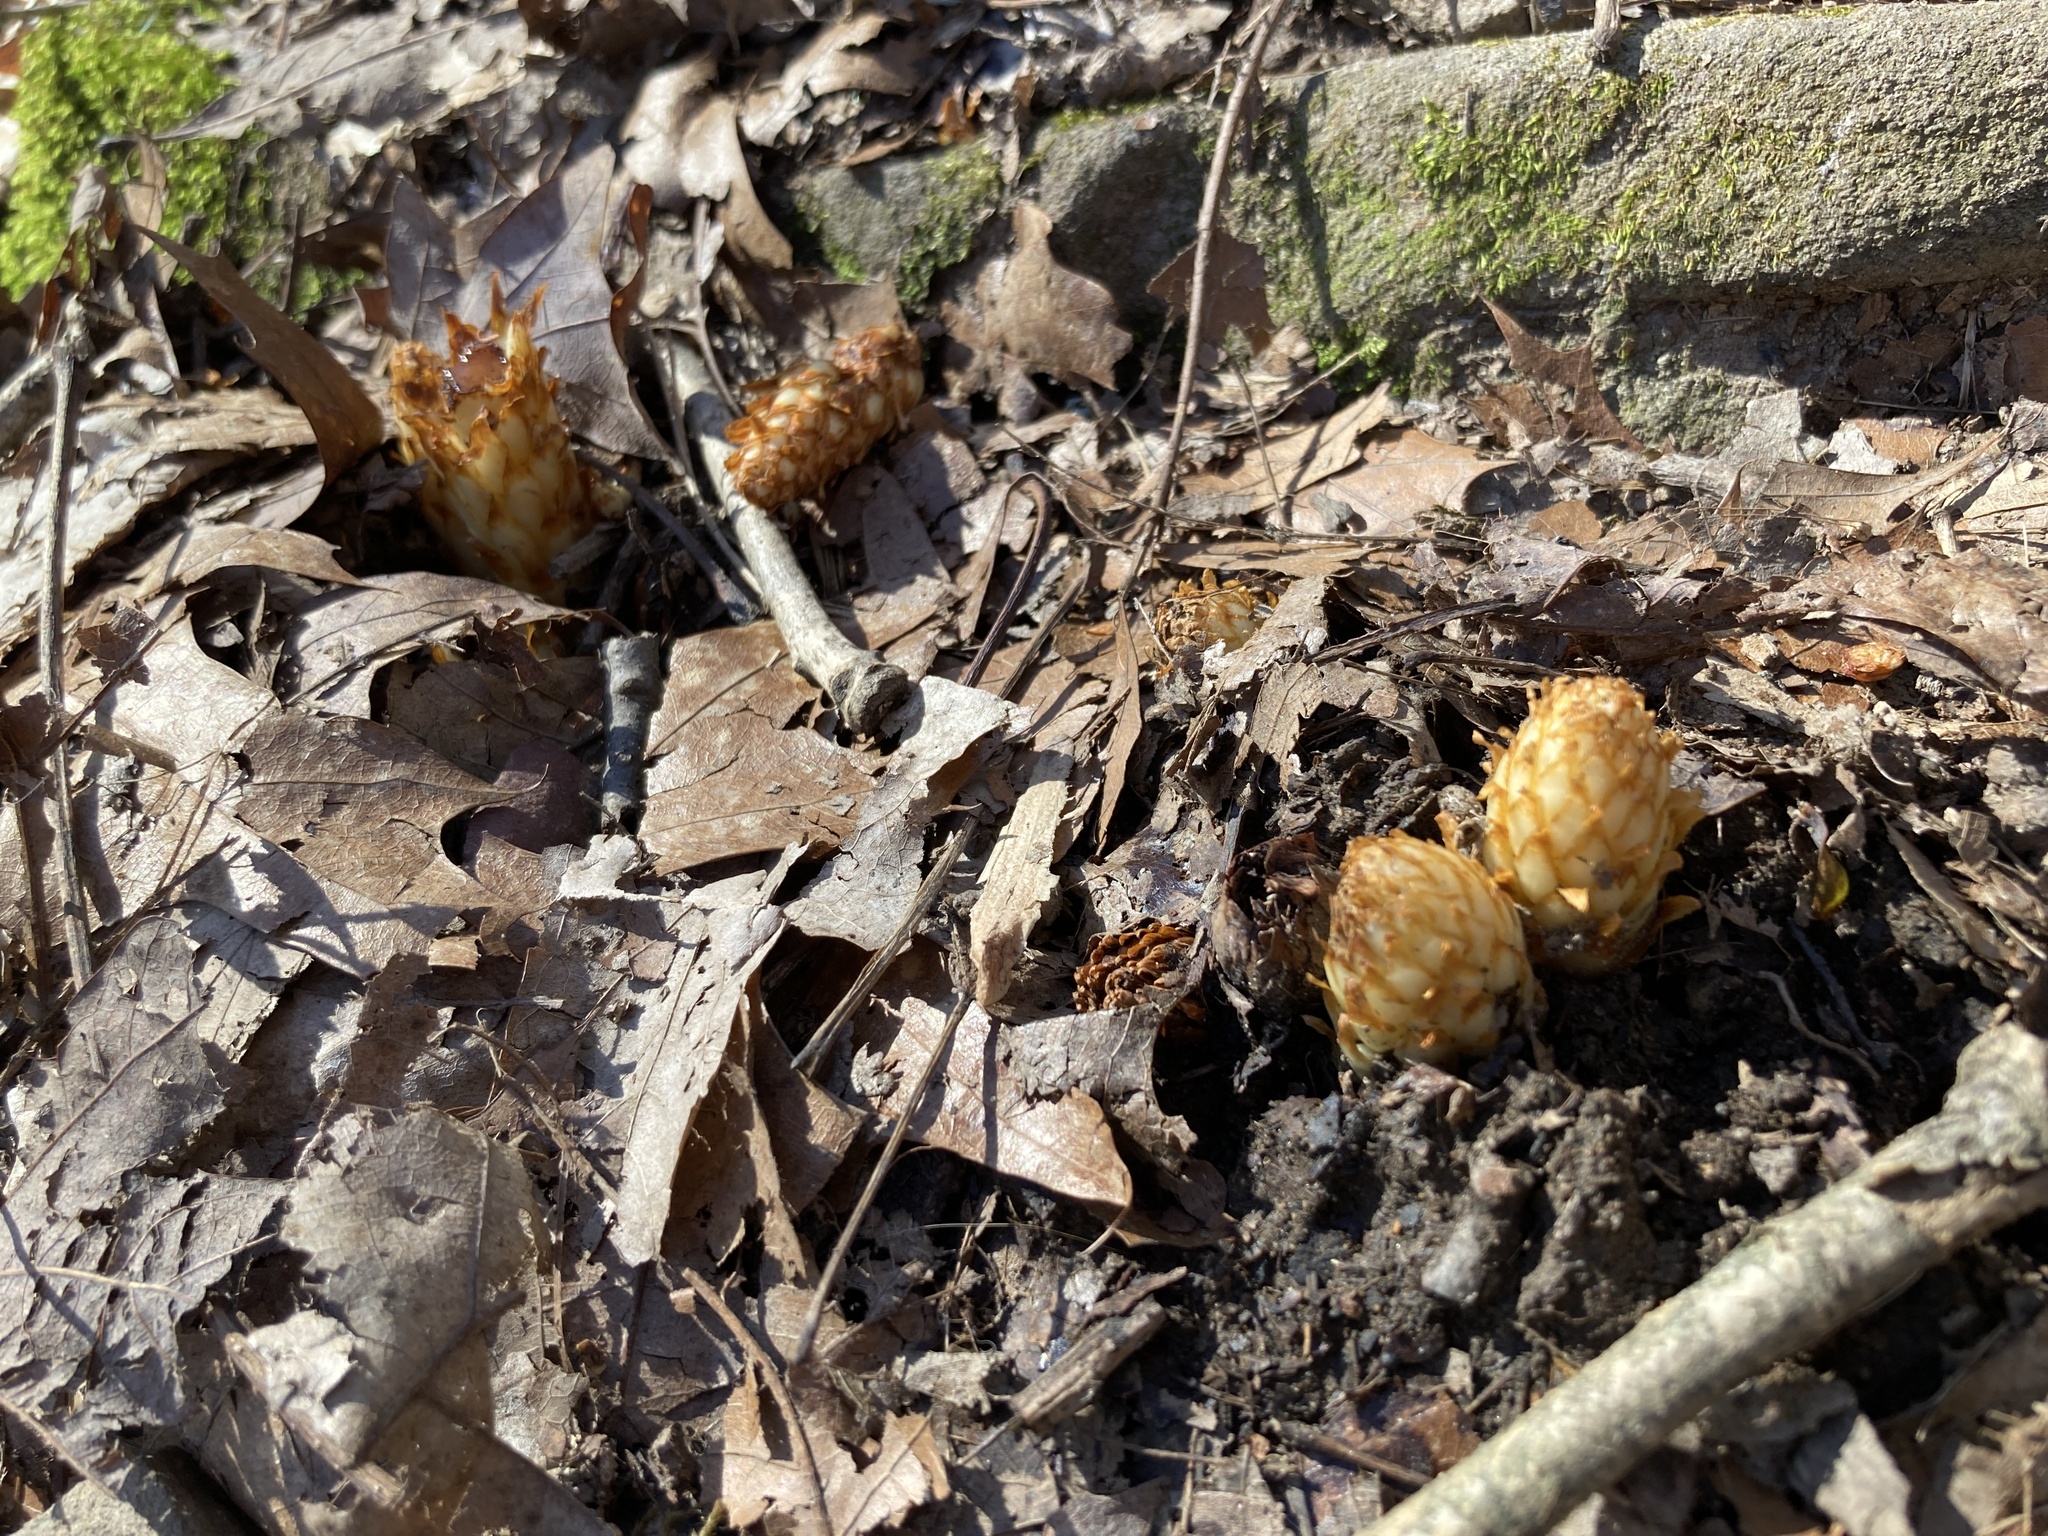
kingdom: Plantae
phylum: Tracheophyta
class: Magnoliopsida
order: Lamiales
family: Orobanchaceae
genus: Conopholis
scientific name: Conopholis americana
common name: American cancer-root
